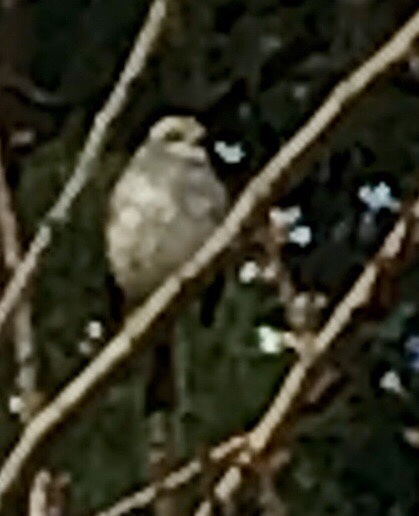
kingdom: Animalia
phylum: Chordata
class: Aves
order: Passeriformes
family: Passerellidae
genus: Zonotrichia
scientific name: Zonotrichia albicollis
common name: White-throated sparrow
